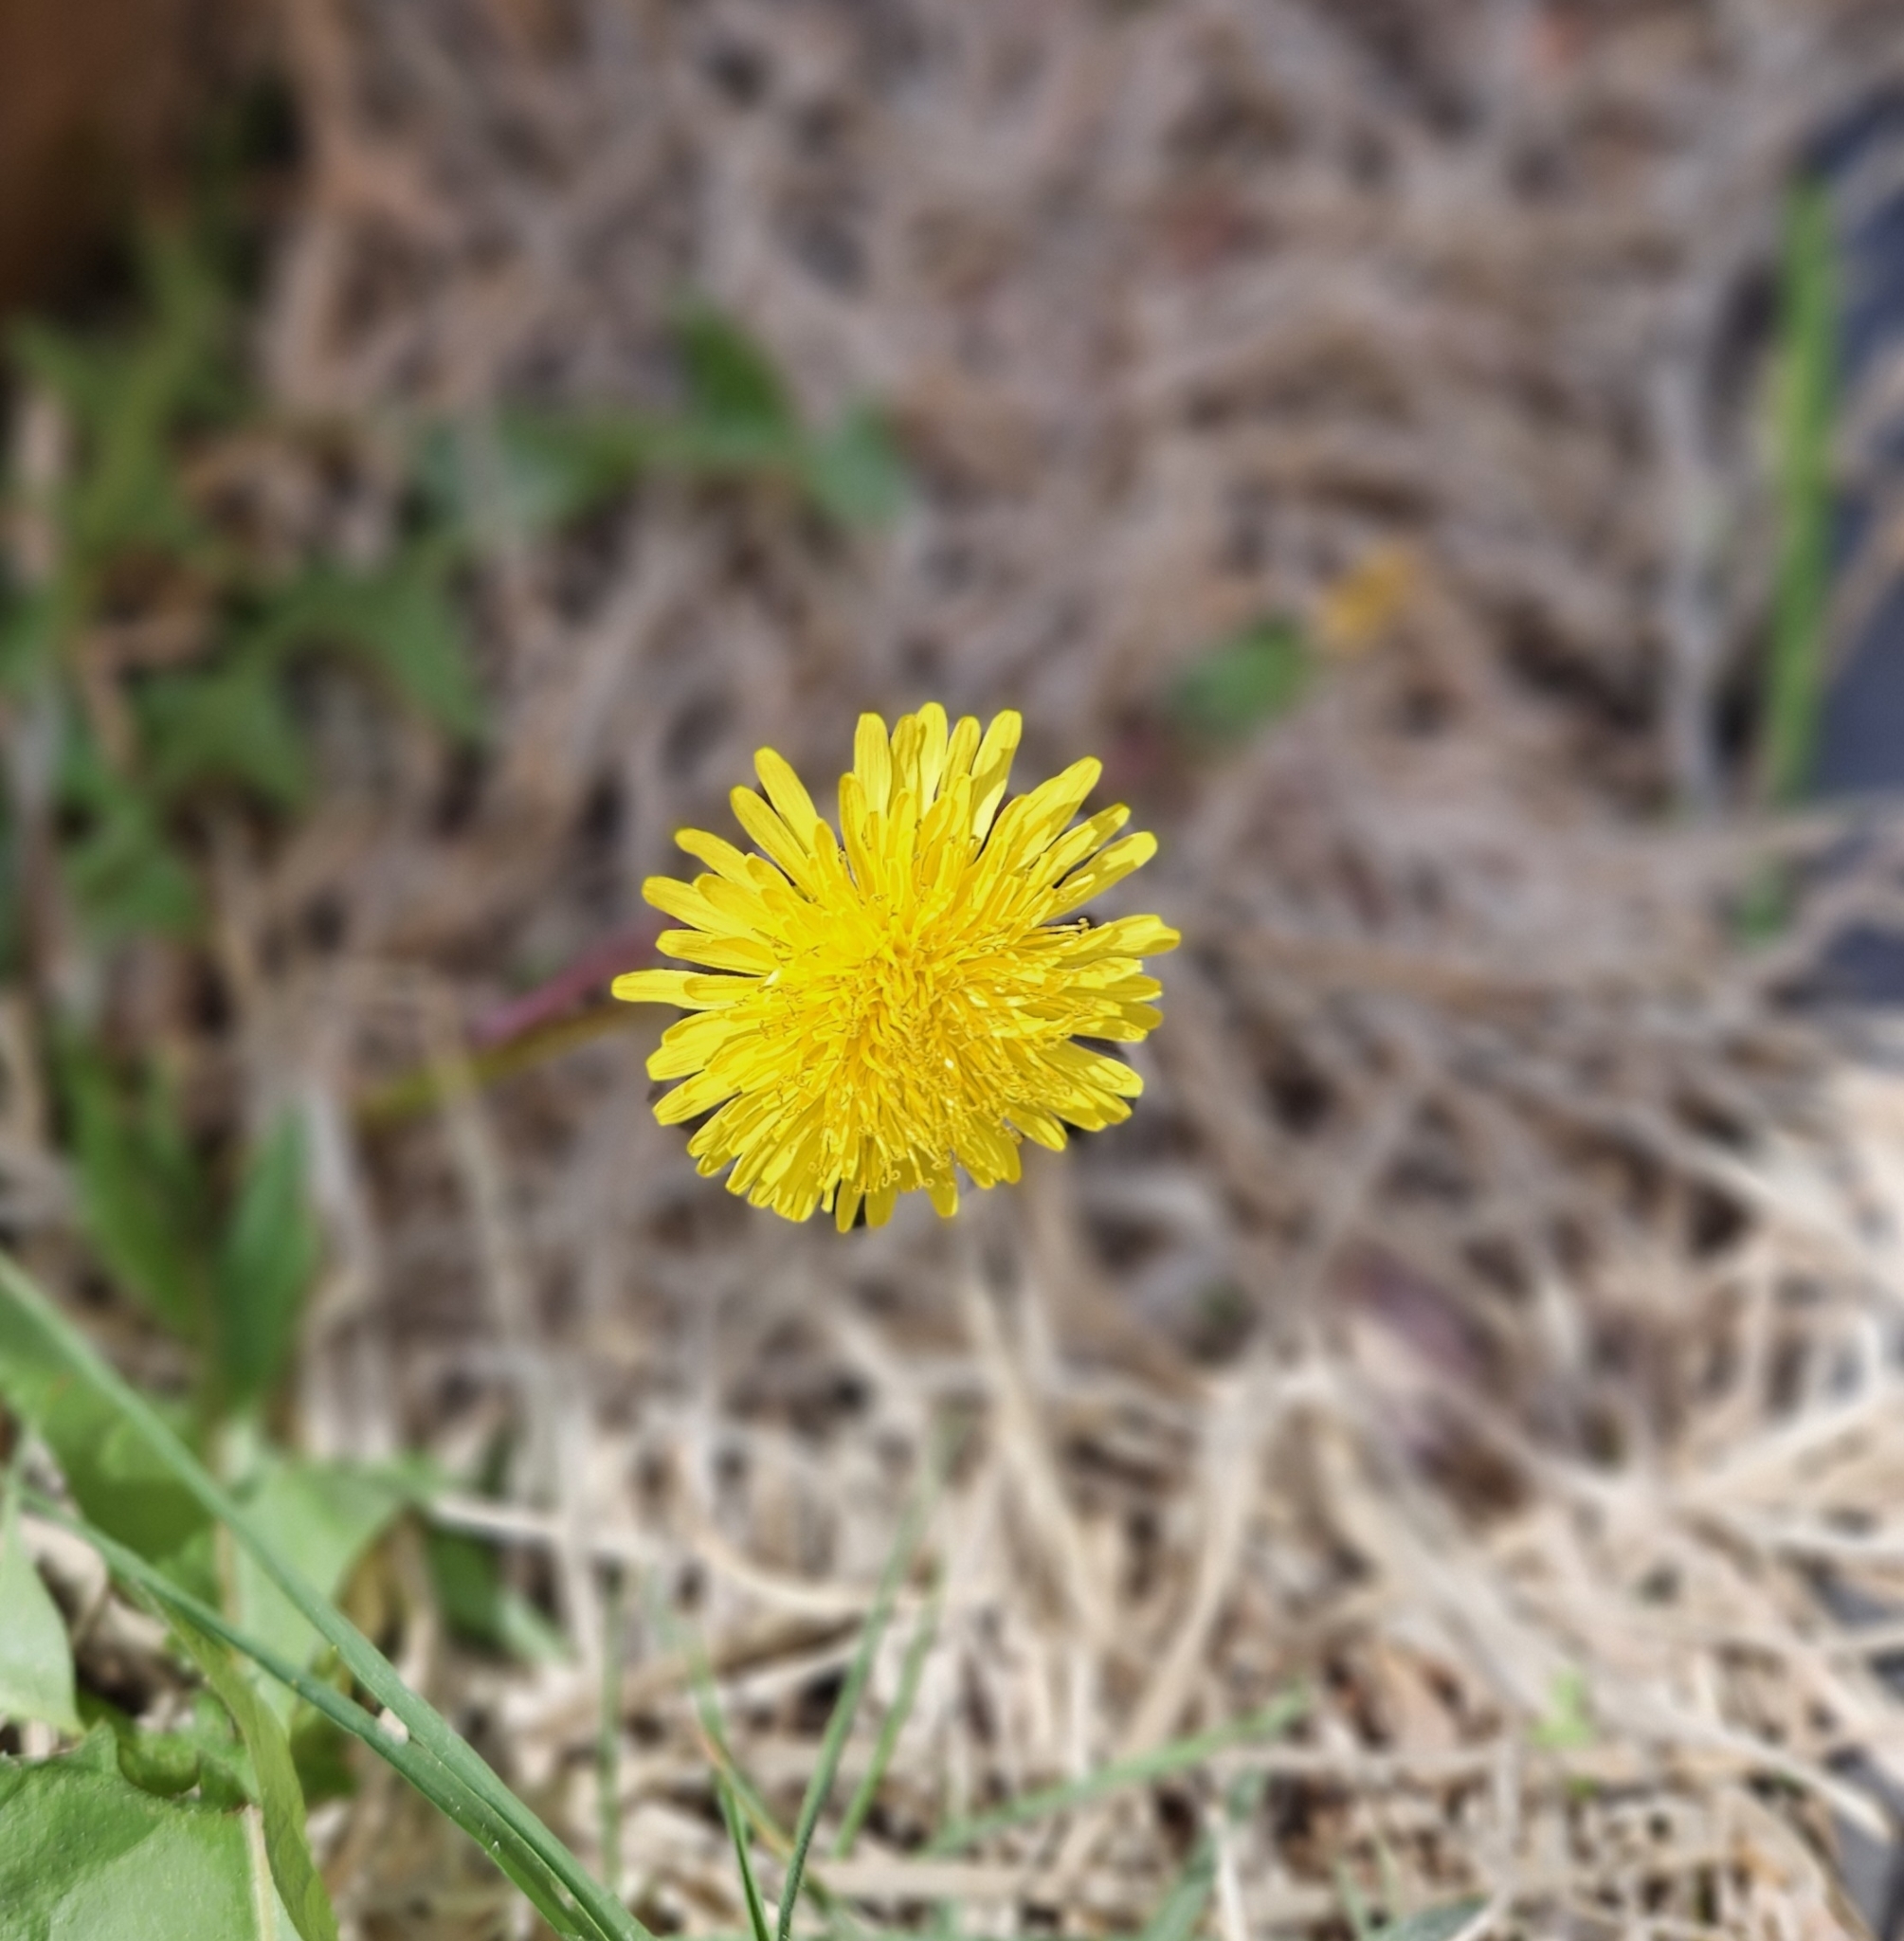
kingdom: Plantae
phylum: Tracheophyta
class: Magnoliopsida
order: Asterales
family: Asteraceae
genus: Taraxacum
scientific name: Taraxacum
